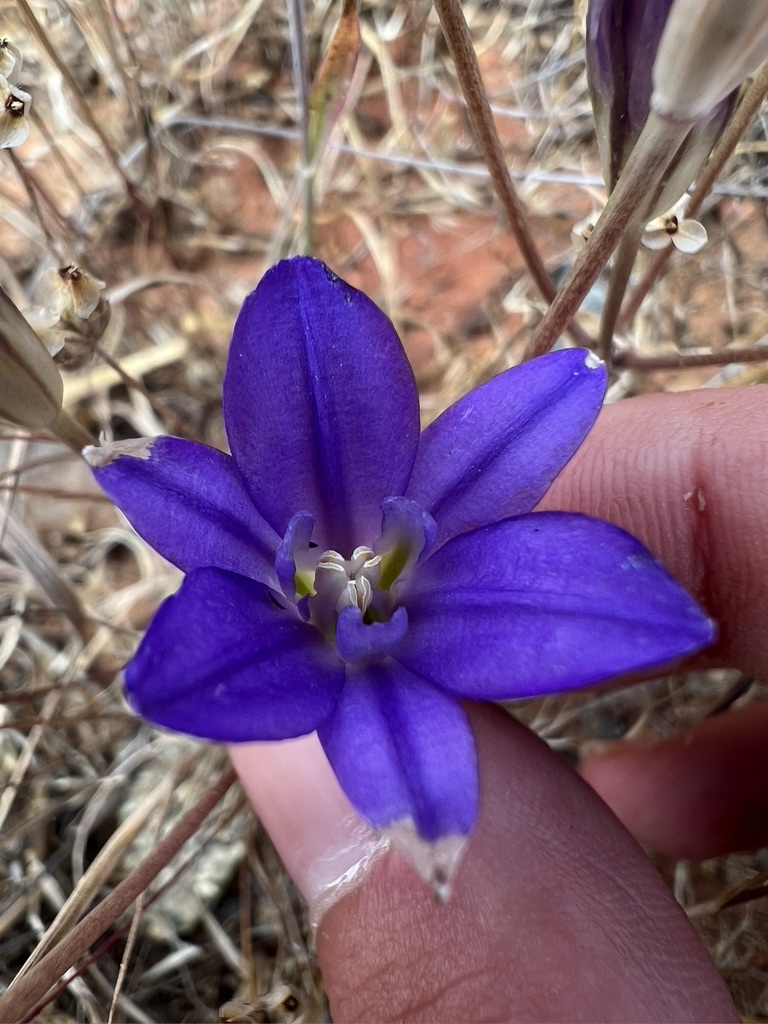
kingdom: Plantae
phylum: Tracheophyta
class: Liliopsida
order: Asparagales
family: Asparagaceae
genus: Brodiaea
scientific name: Brodiaea terrestris
